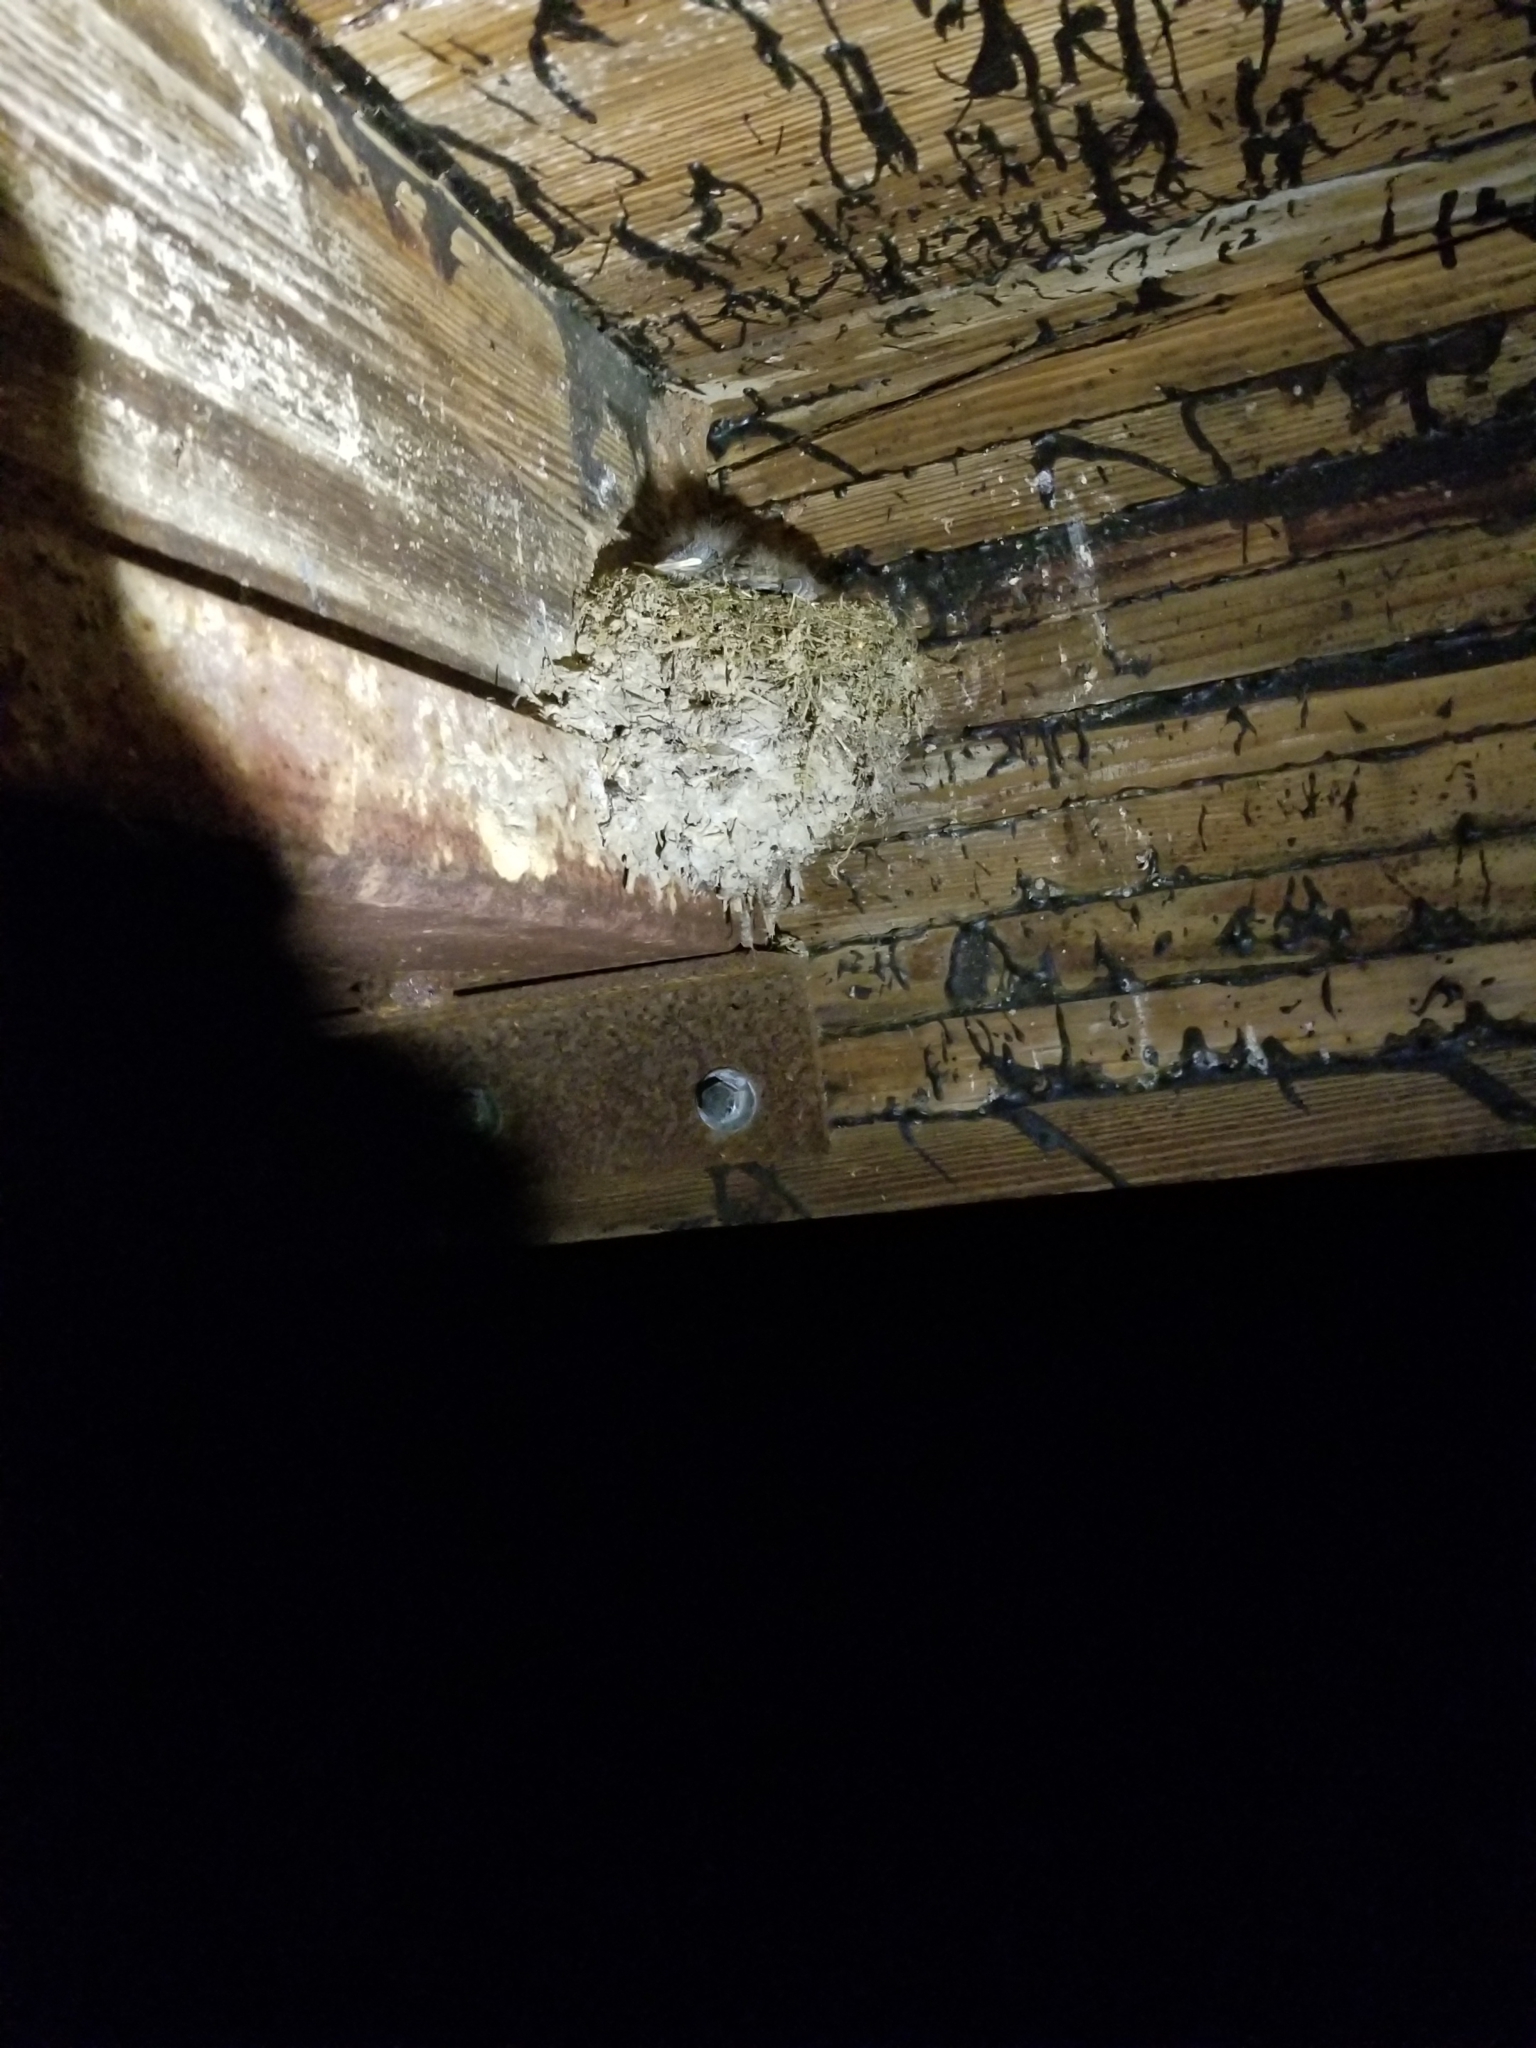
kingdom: Animalia
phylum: Chordata
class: Aves
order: Passeriformes
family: Tyrannidae
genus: Sayornis
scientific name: Sayornis phoebe
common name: Eastern phoebe
